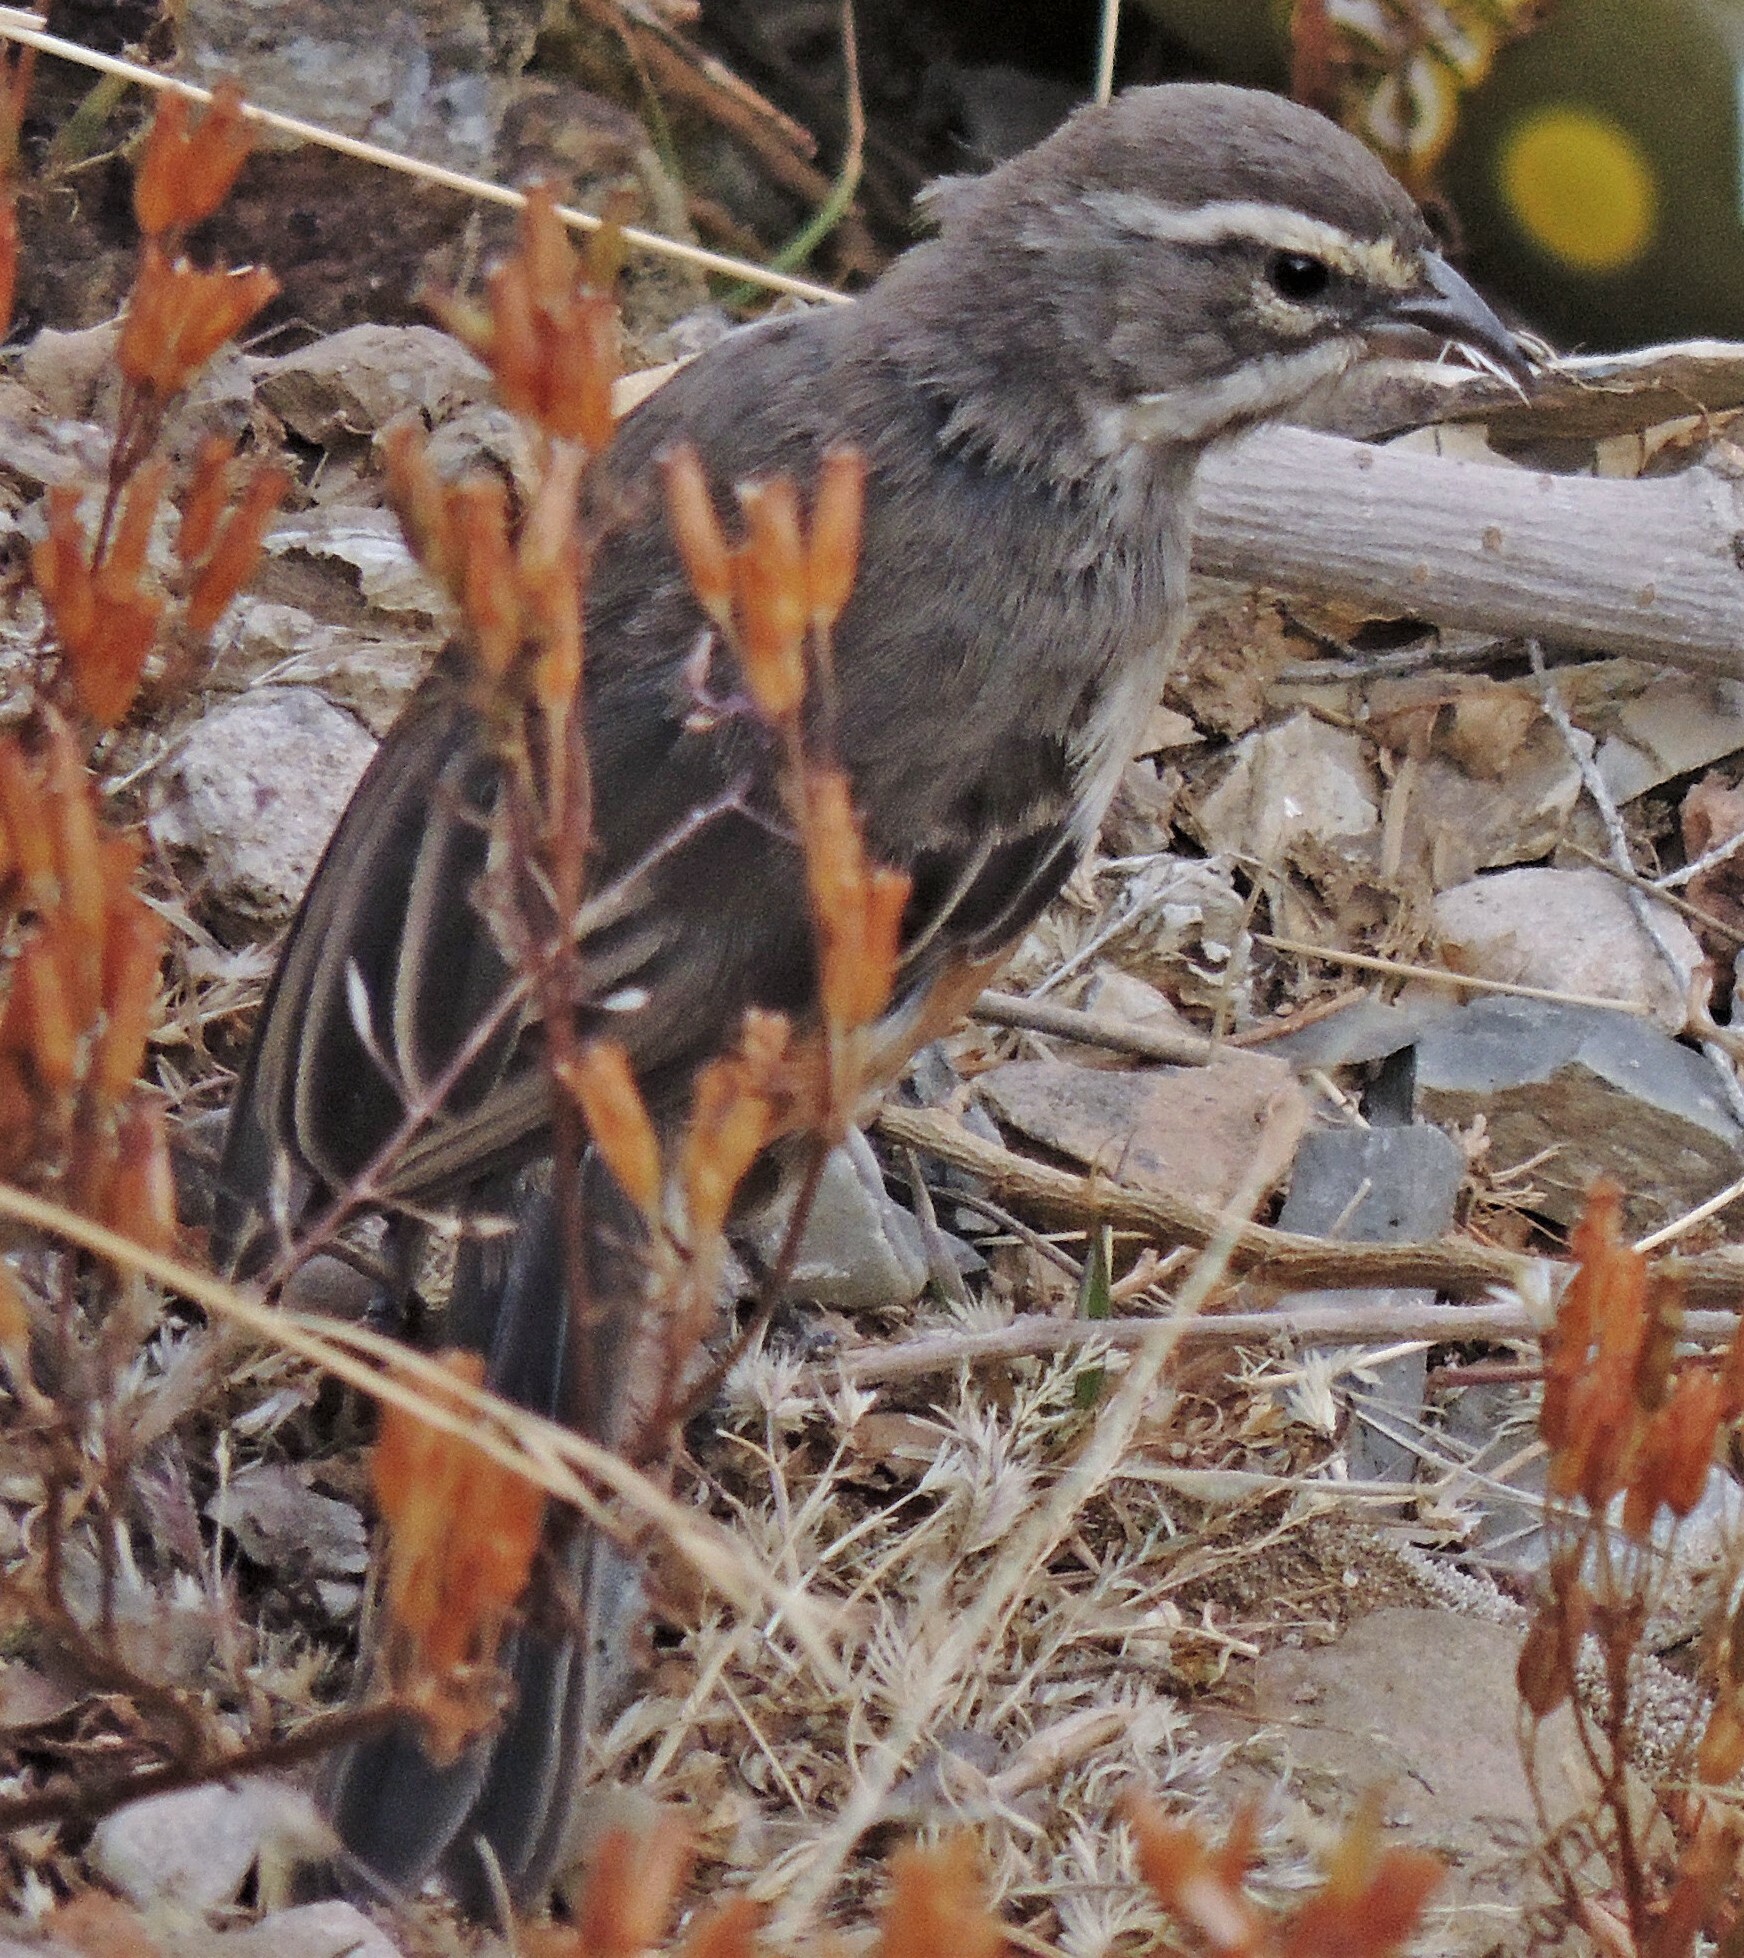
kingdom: Animalia
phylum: Chordata
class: Aves
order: Passeriformes
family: Thraupidae
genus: Poospizopsis
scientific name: Poospizopsis hypocondria
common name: Rufous-sided warbling-finch
